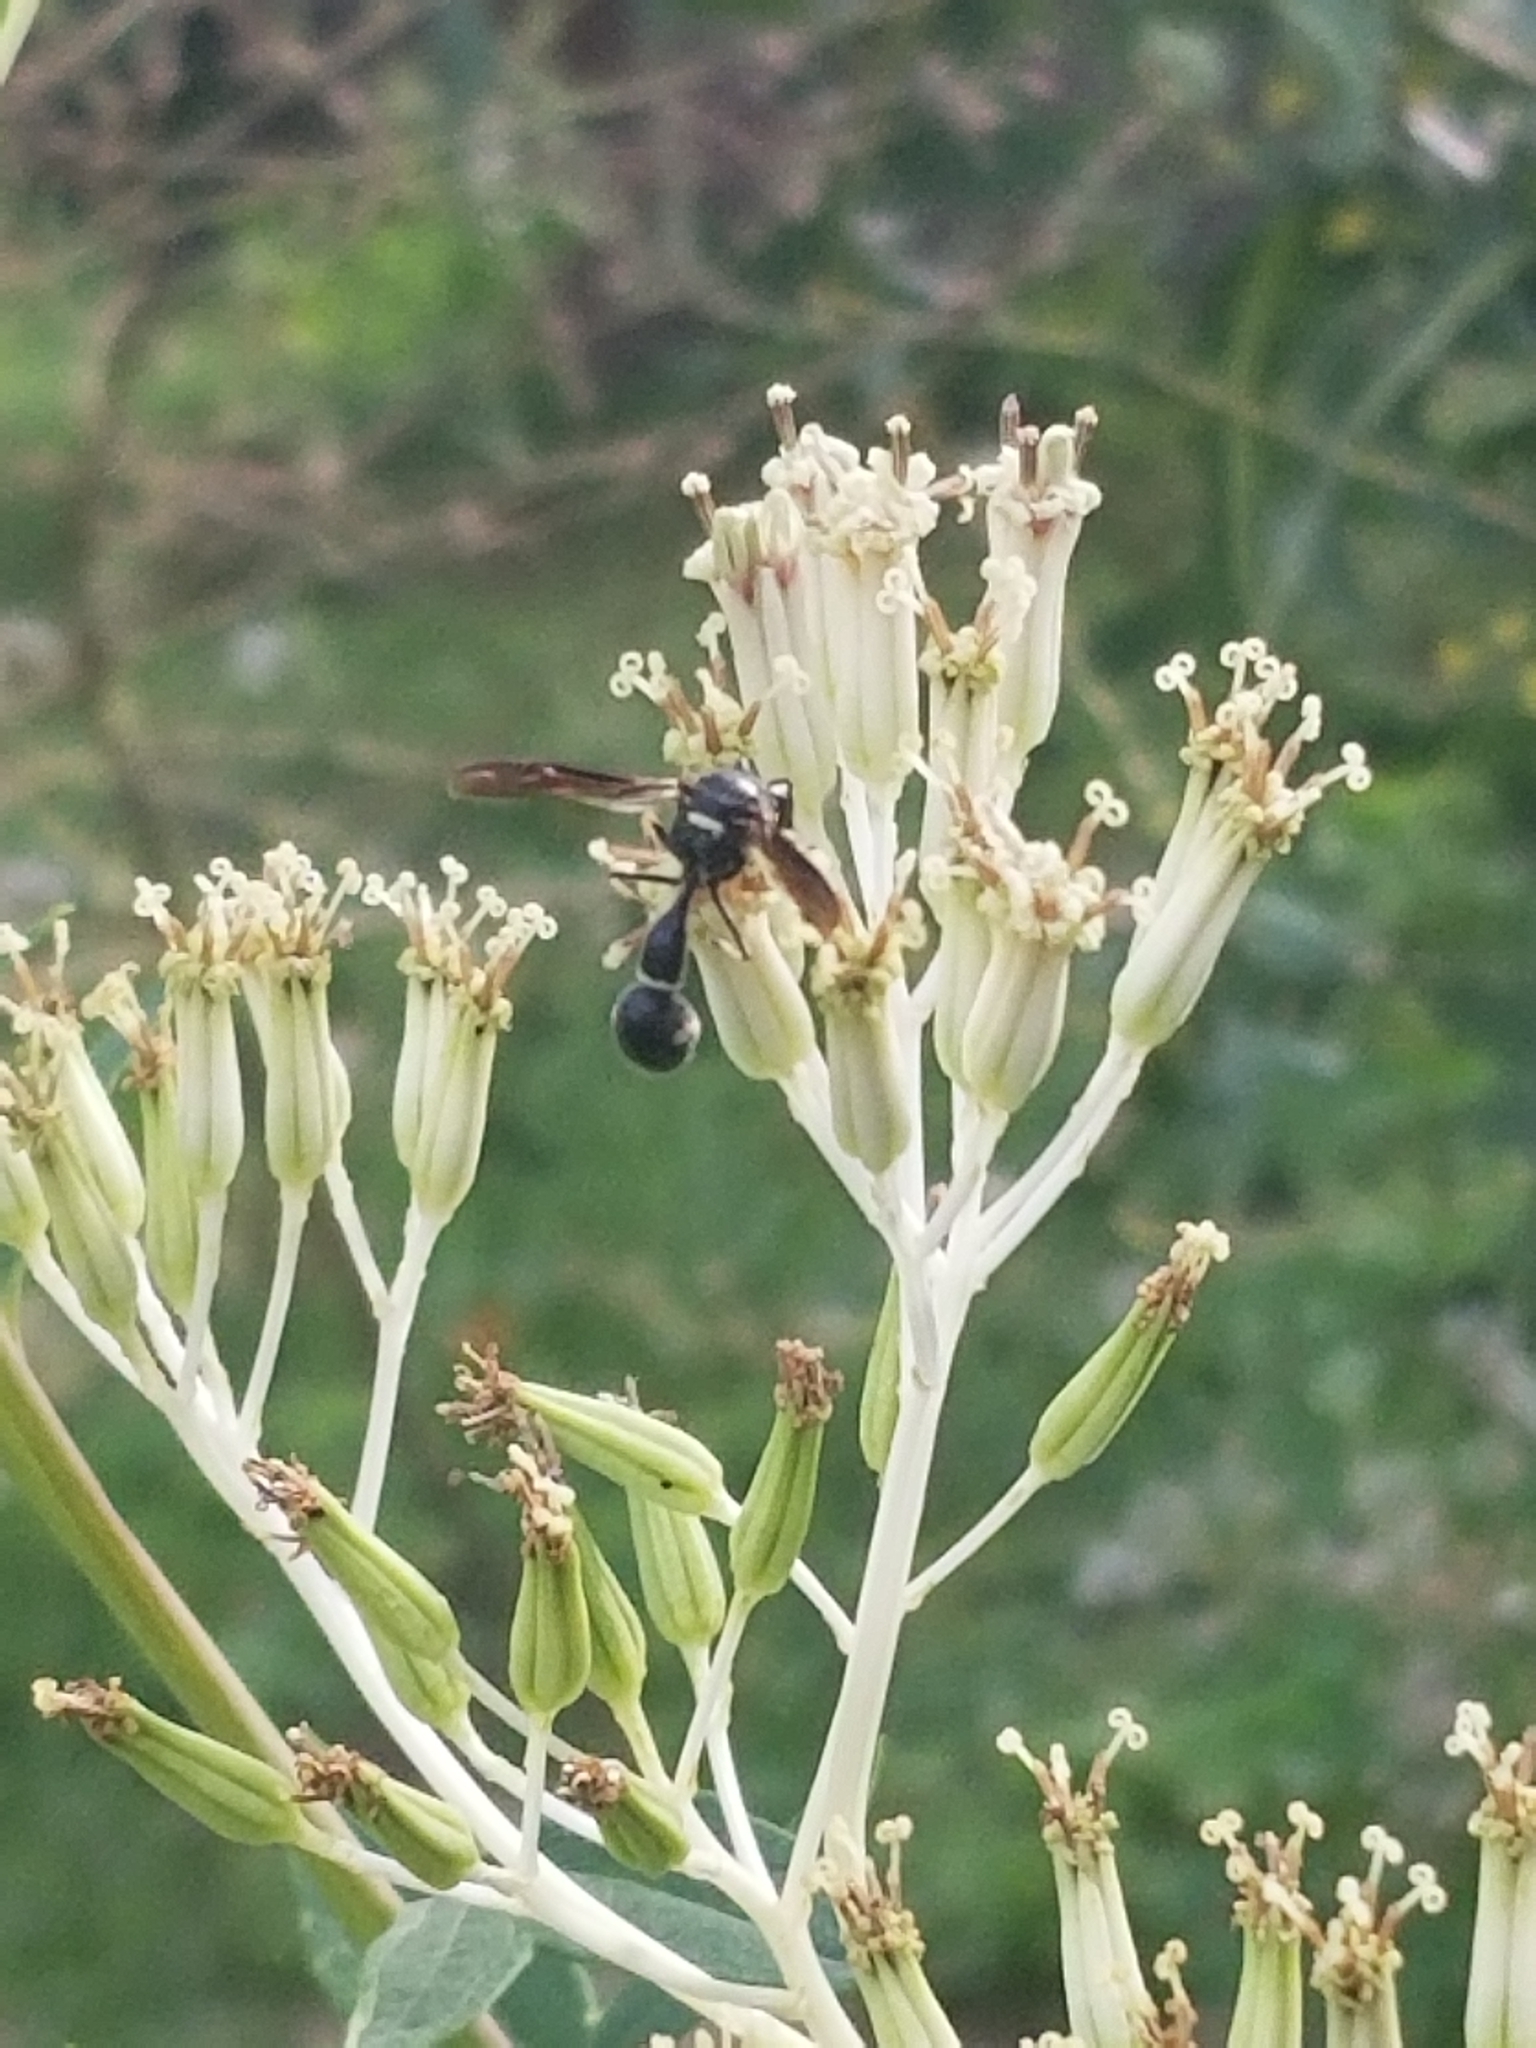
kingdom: Animalia
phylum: Arthropoda
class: Insecta
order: Hymenoptera
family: Vespidae
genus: Eumenes
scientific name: Eumenes fraternus
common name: Fraternal potter wasp
